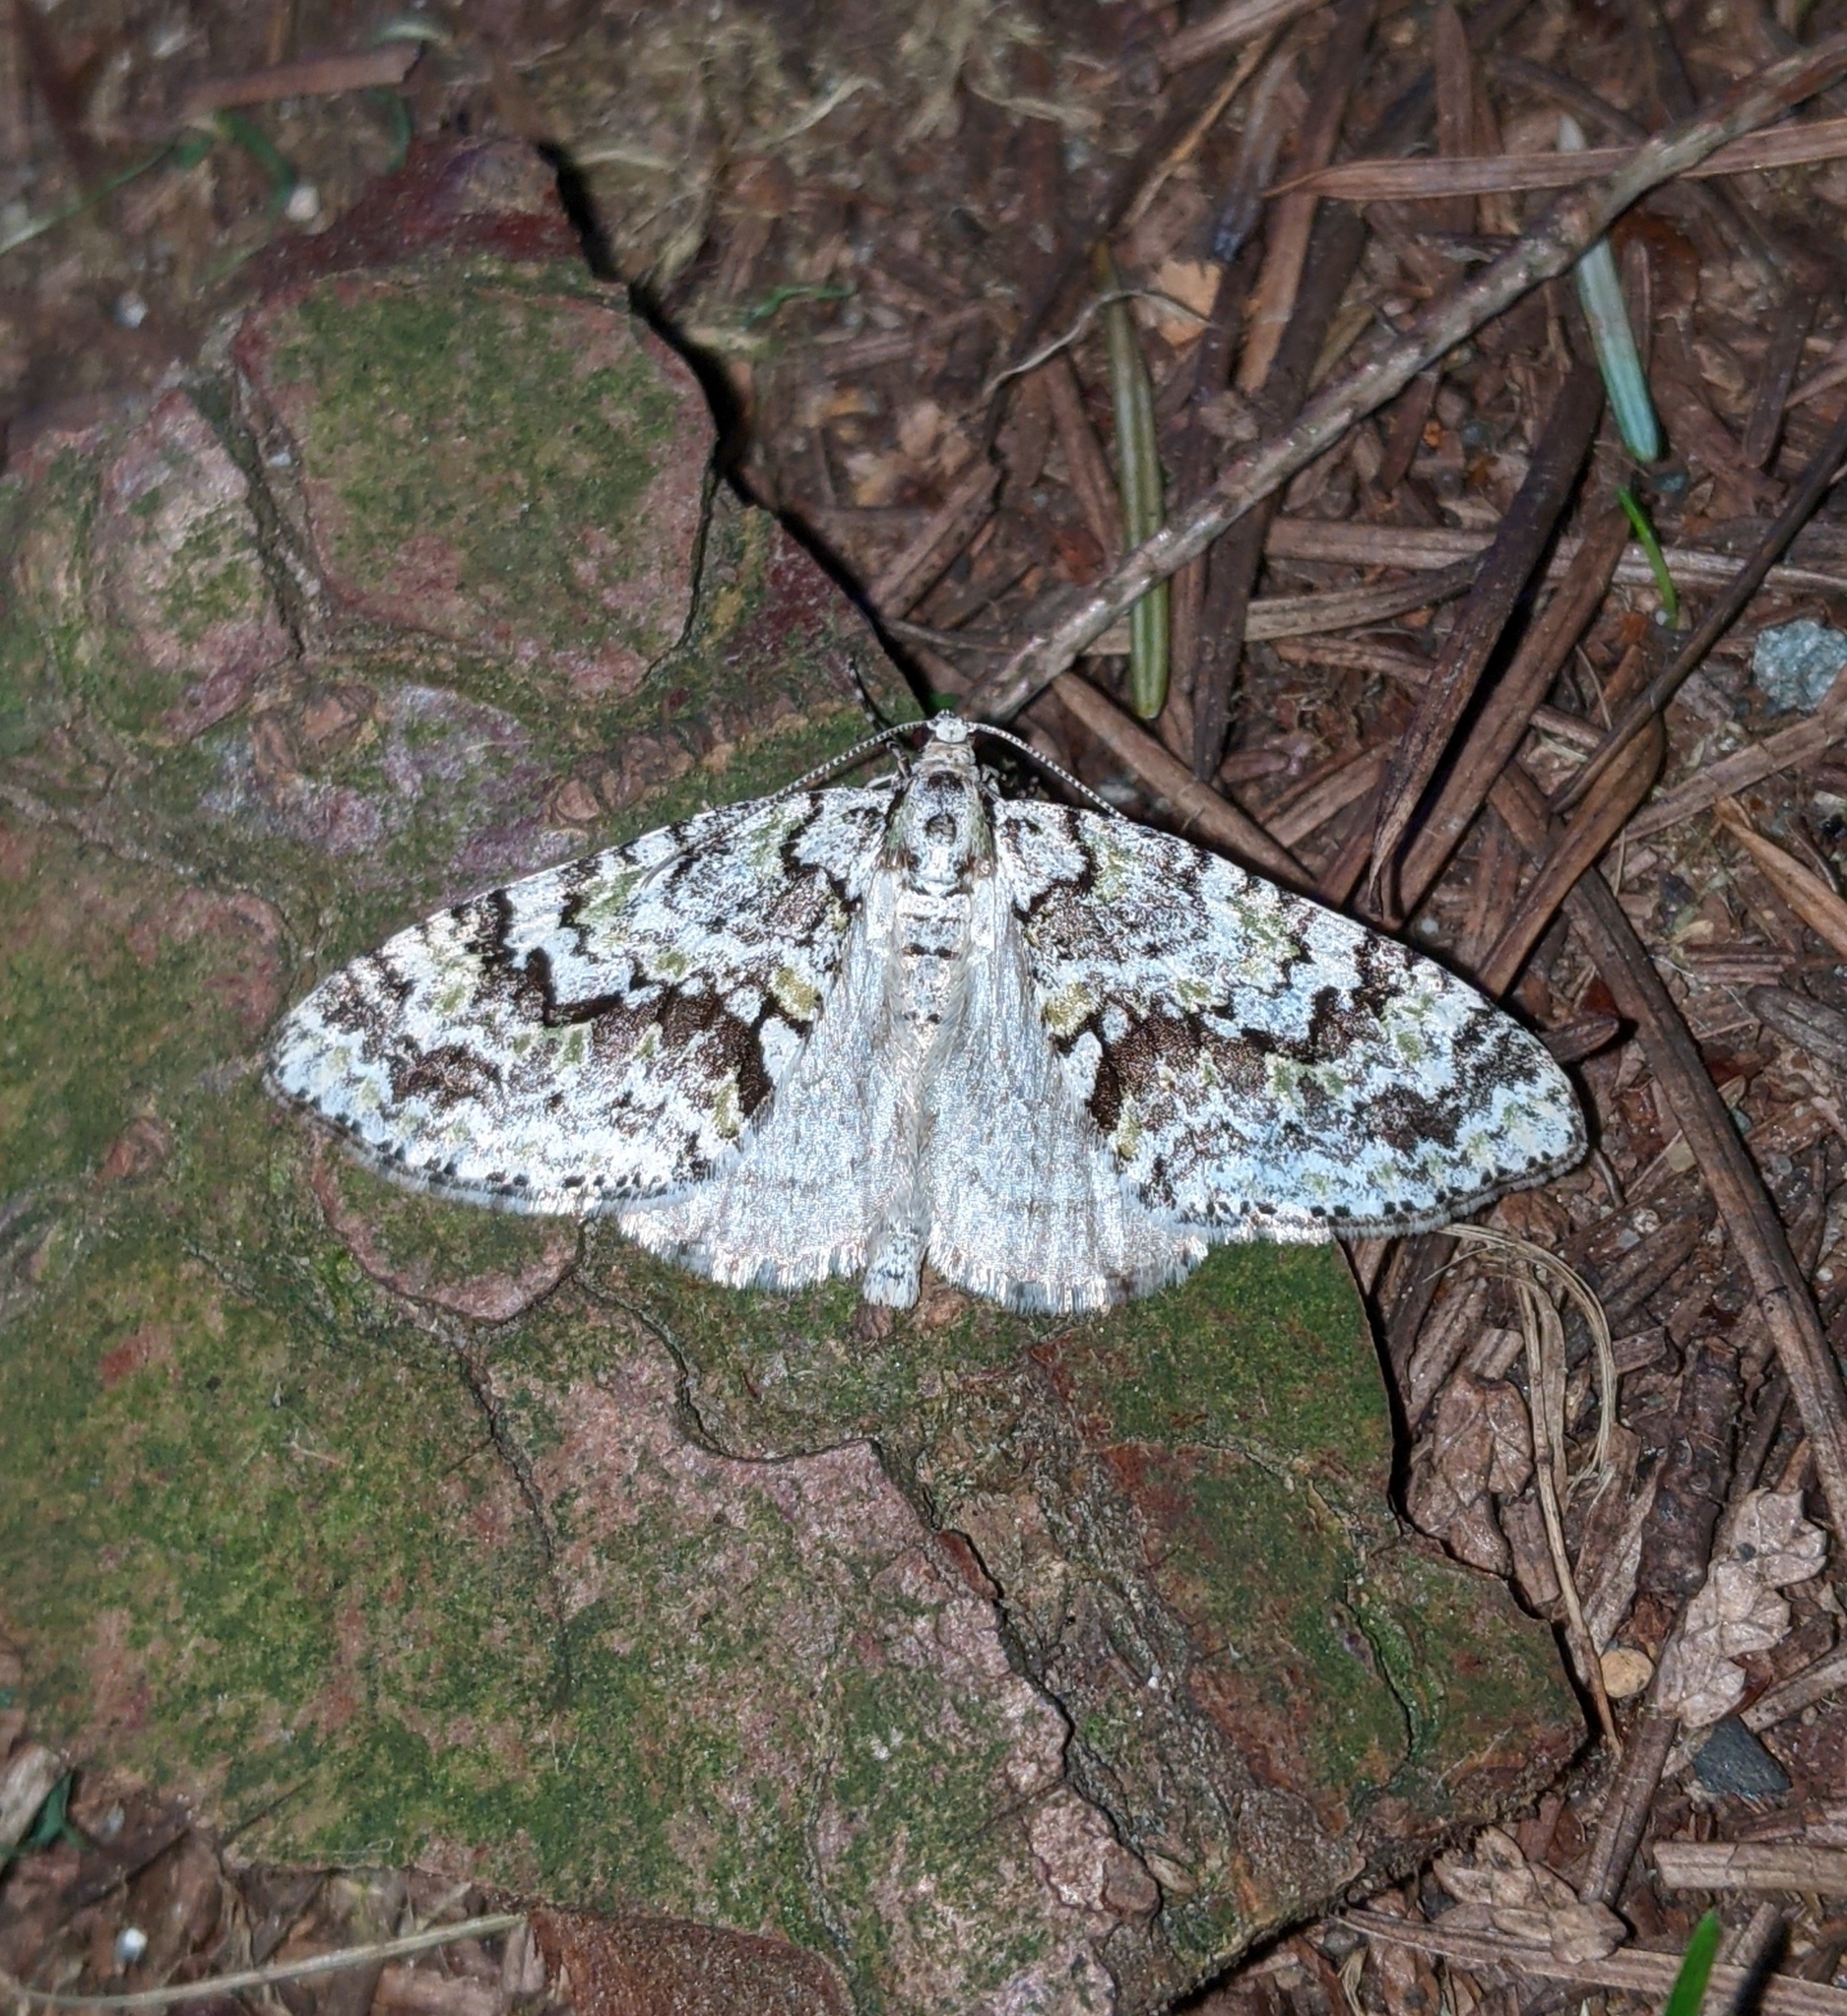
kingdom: Animalia
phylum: Arthropoda
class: Insecta
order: Lepidoptera
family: Geometridae
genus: Cladara
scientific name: Cladara limitaria
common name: Mottled gray carpet
